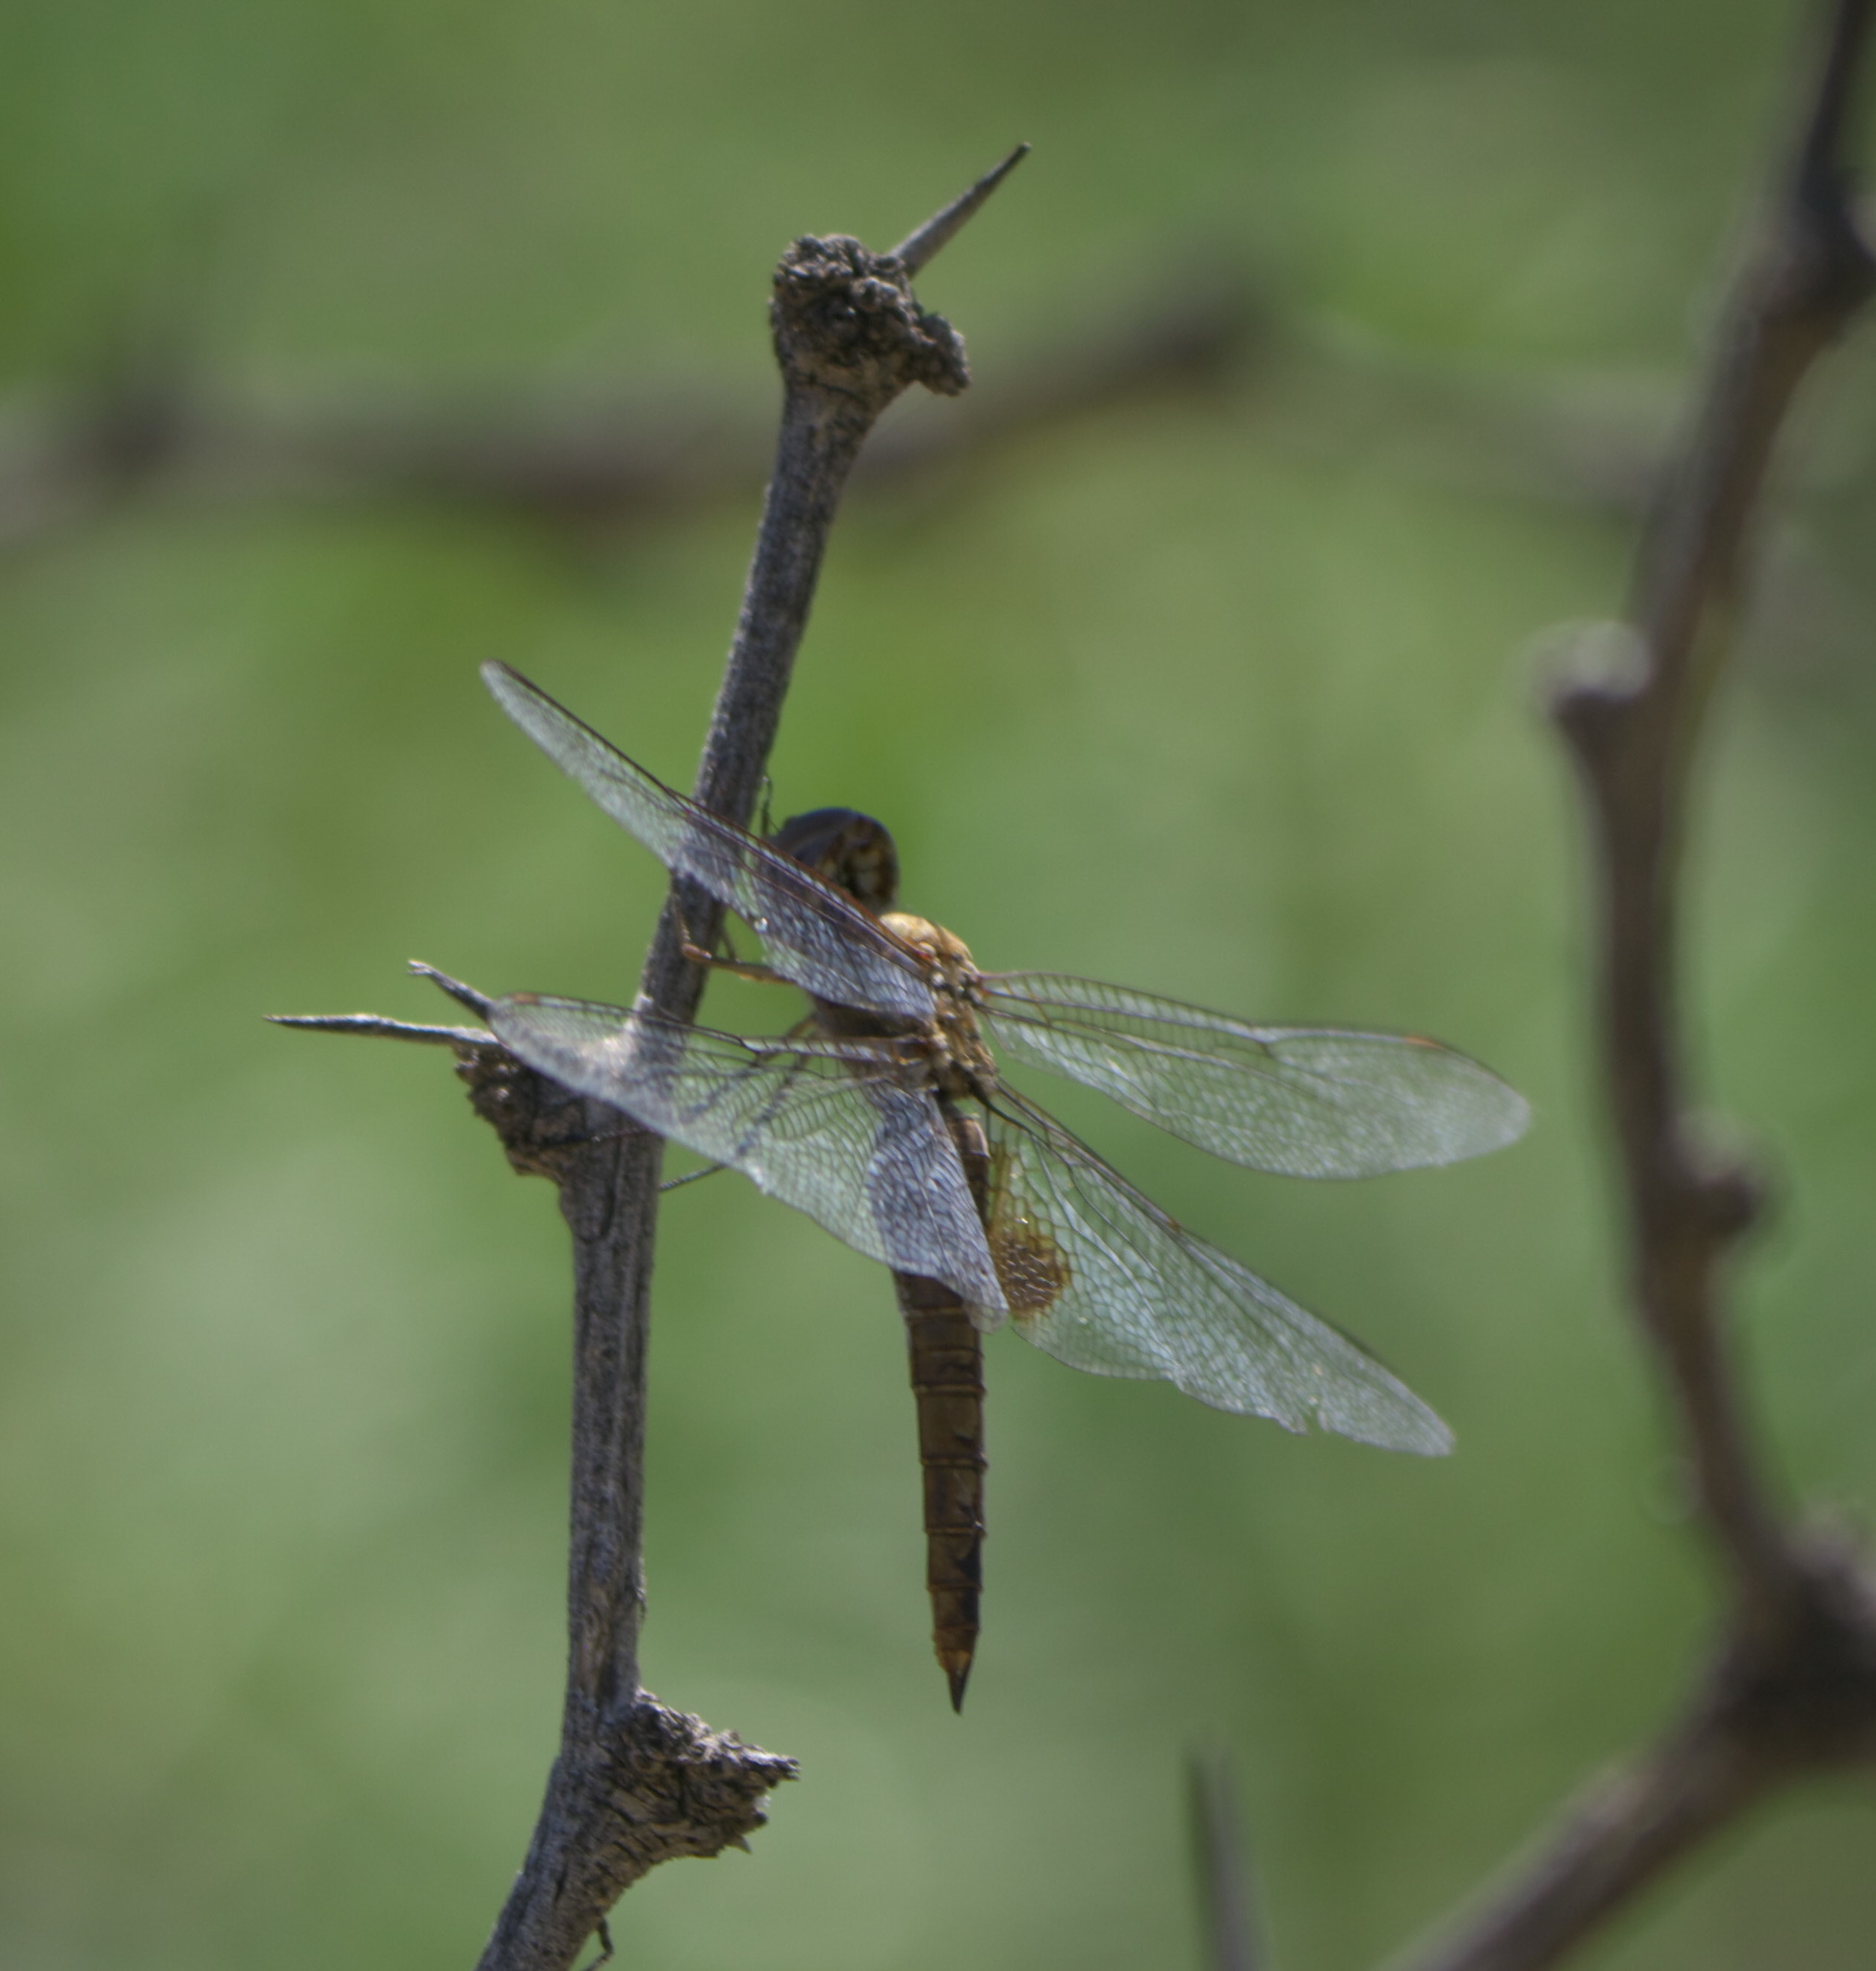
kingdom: Animalia
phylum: Arthropoda
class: Insecta
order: Odonata
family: Libellulidae
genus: Pantala
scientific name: Pantala flavescens
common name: Wandering glider
